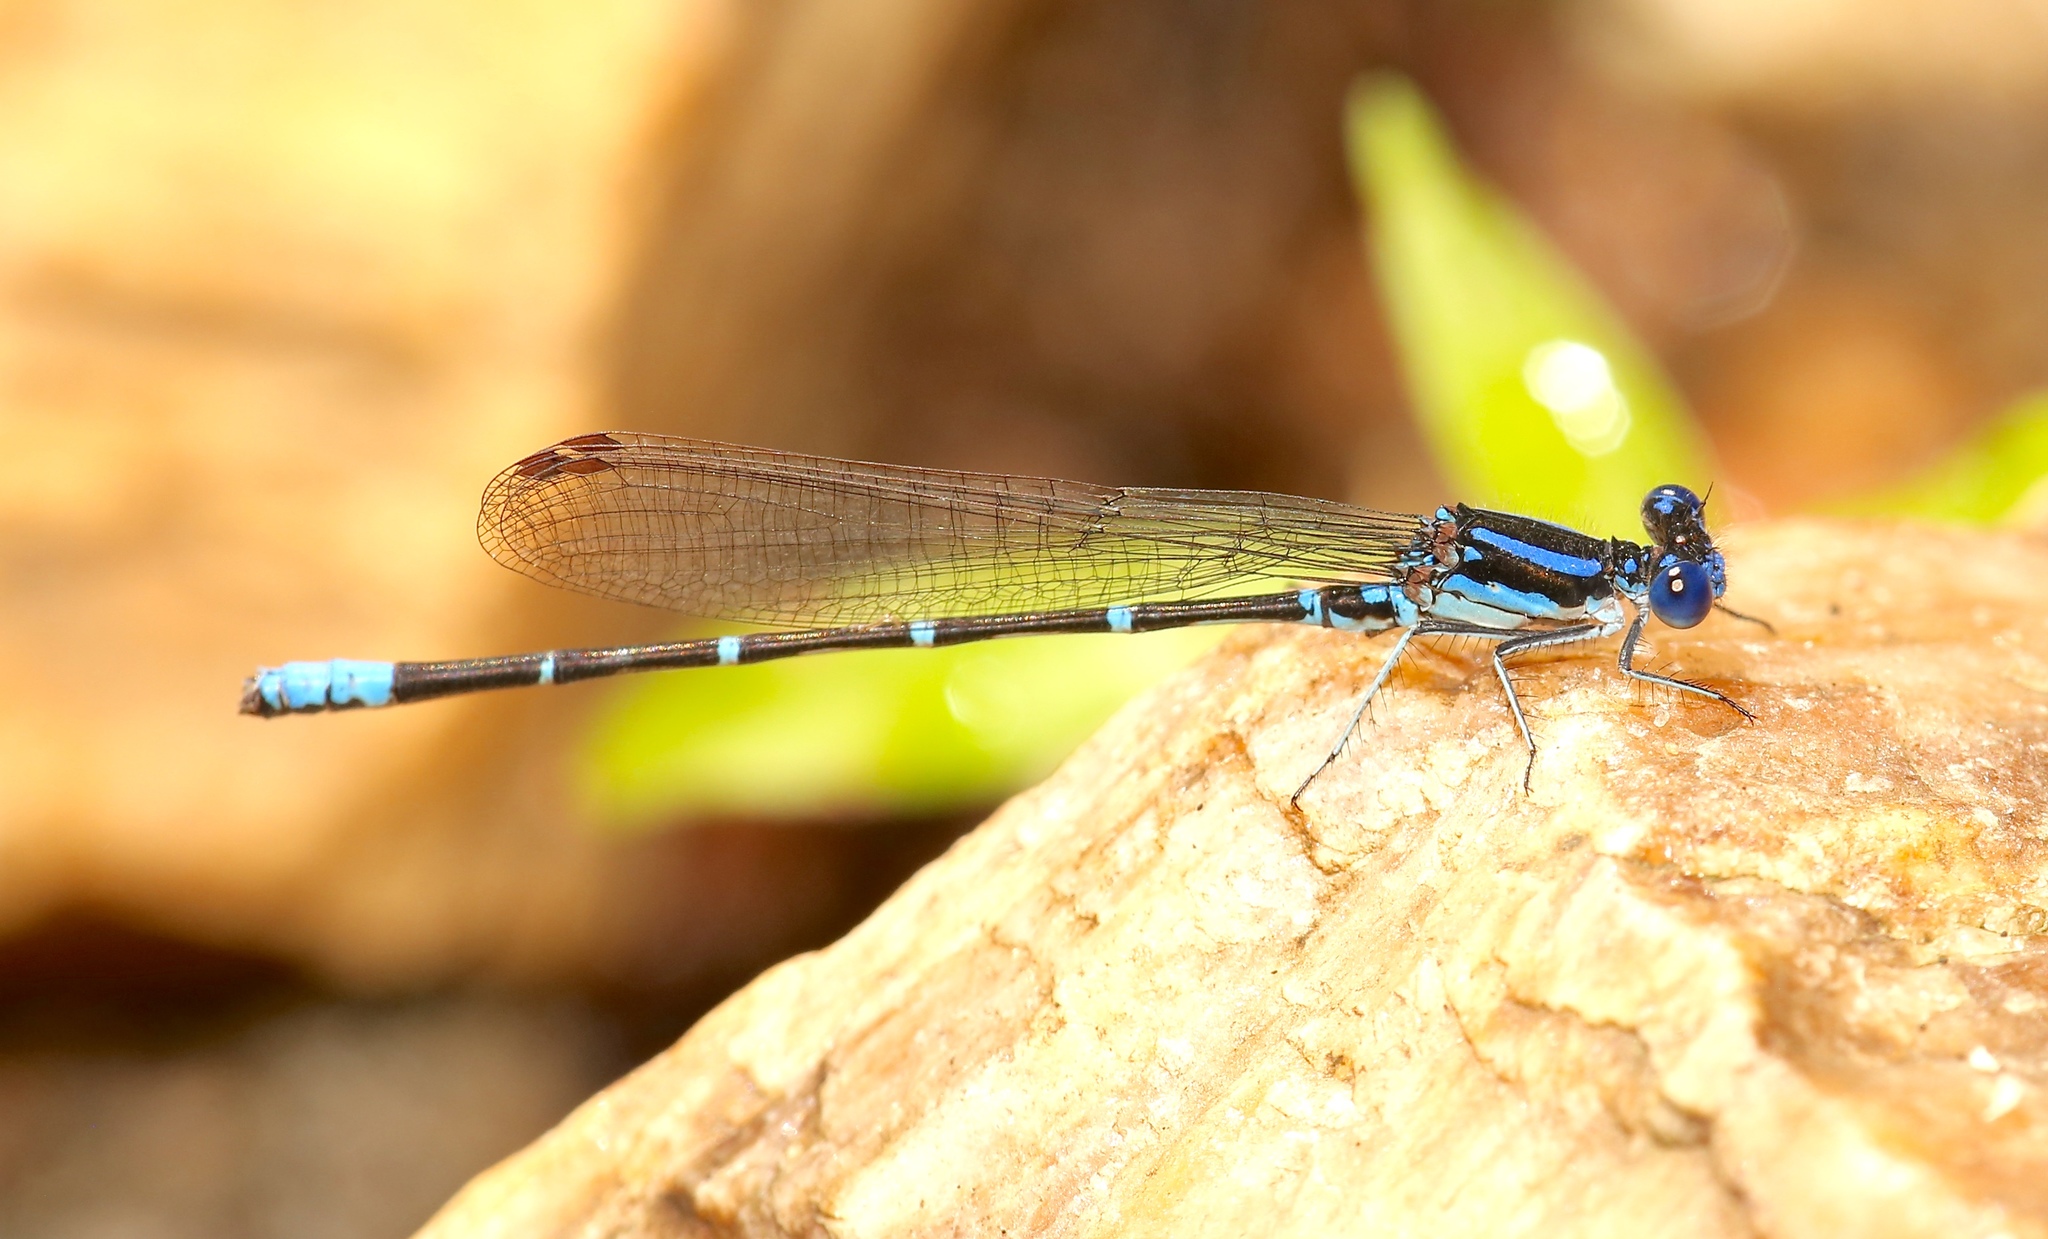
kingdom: Animalia
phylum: Arthropoda
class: Insecta
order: Odonata
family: Coenagrionidae
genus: Argia
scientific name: Argia sedula
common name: Blue-ringed dancer
